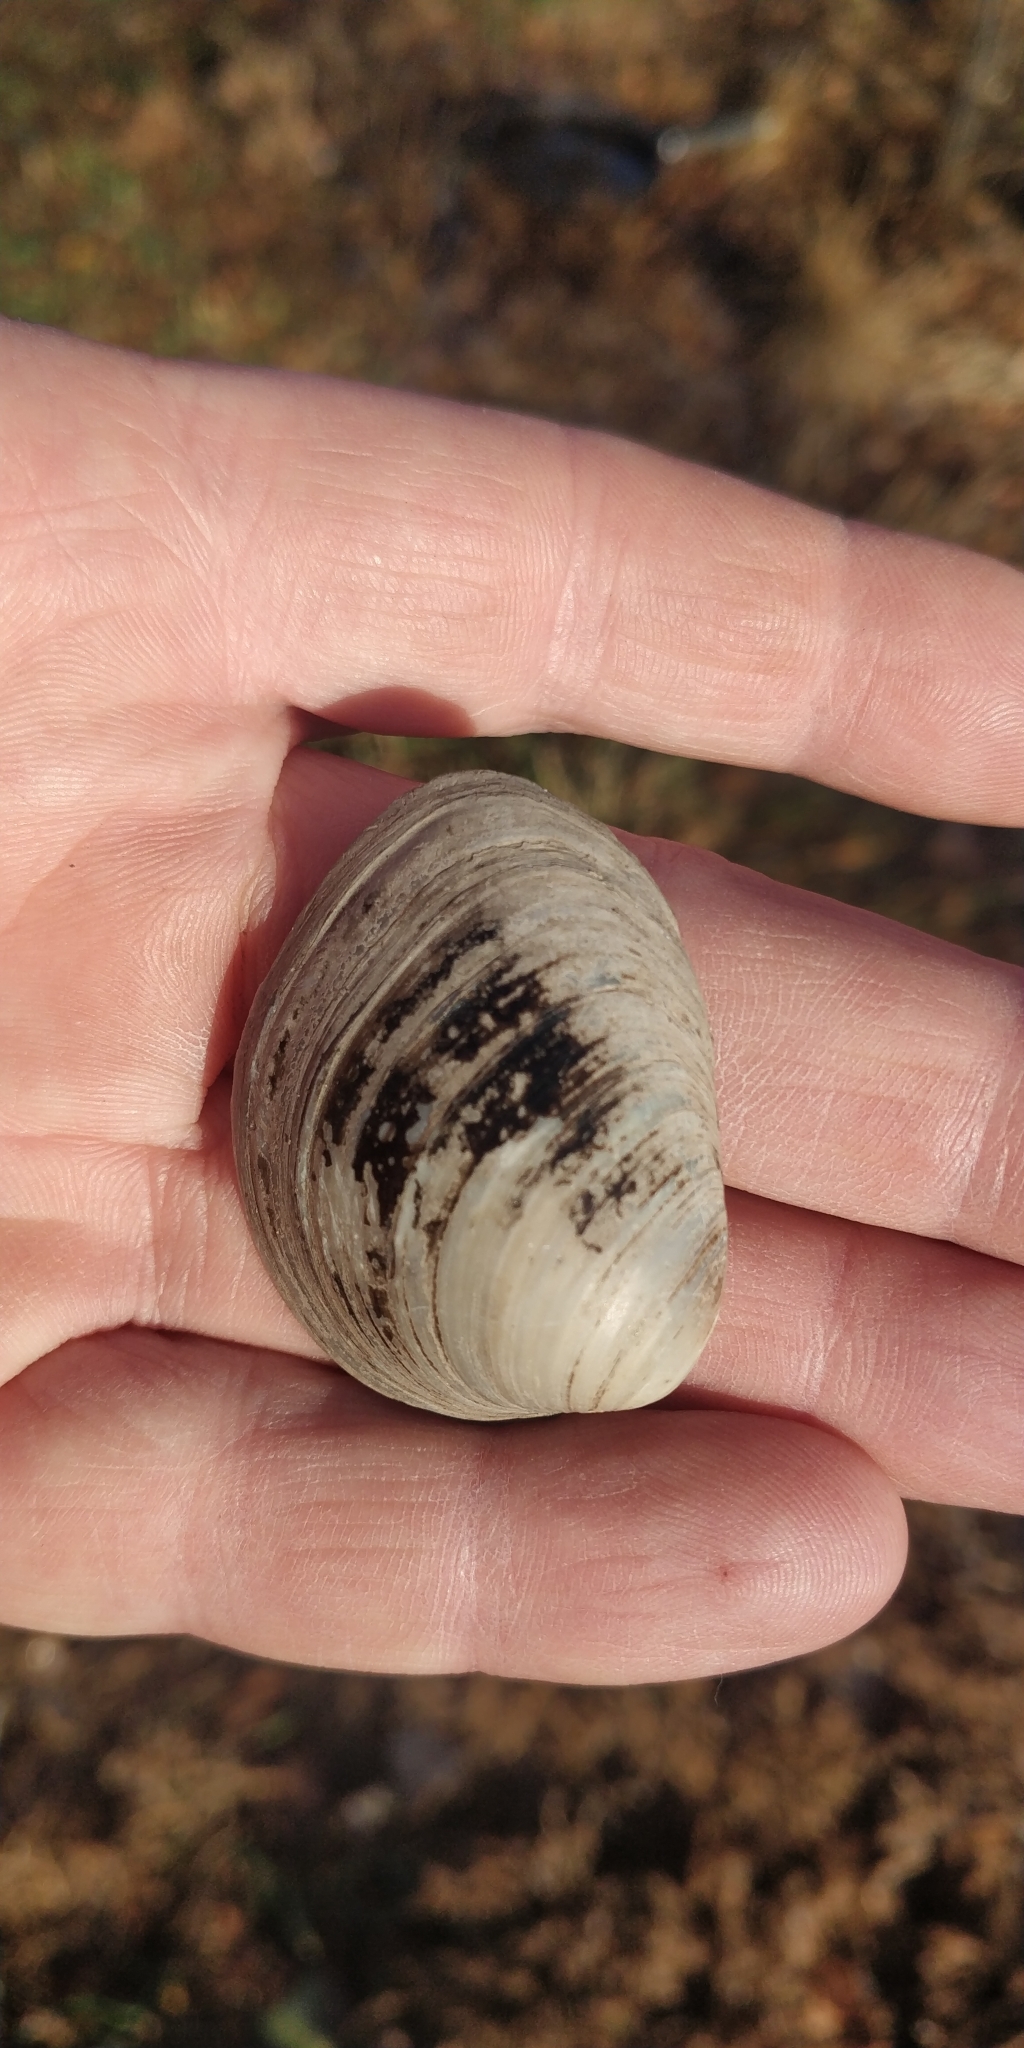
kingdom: Animalia
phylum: Mollusca
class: Bivalvia
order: Unionida
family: Unionidae
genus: Obovaria
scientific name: Obovaria olivaria
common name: Hickorynut
